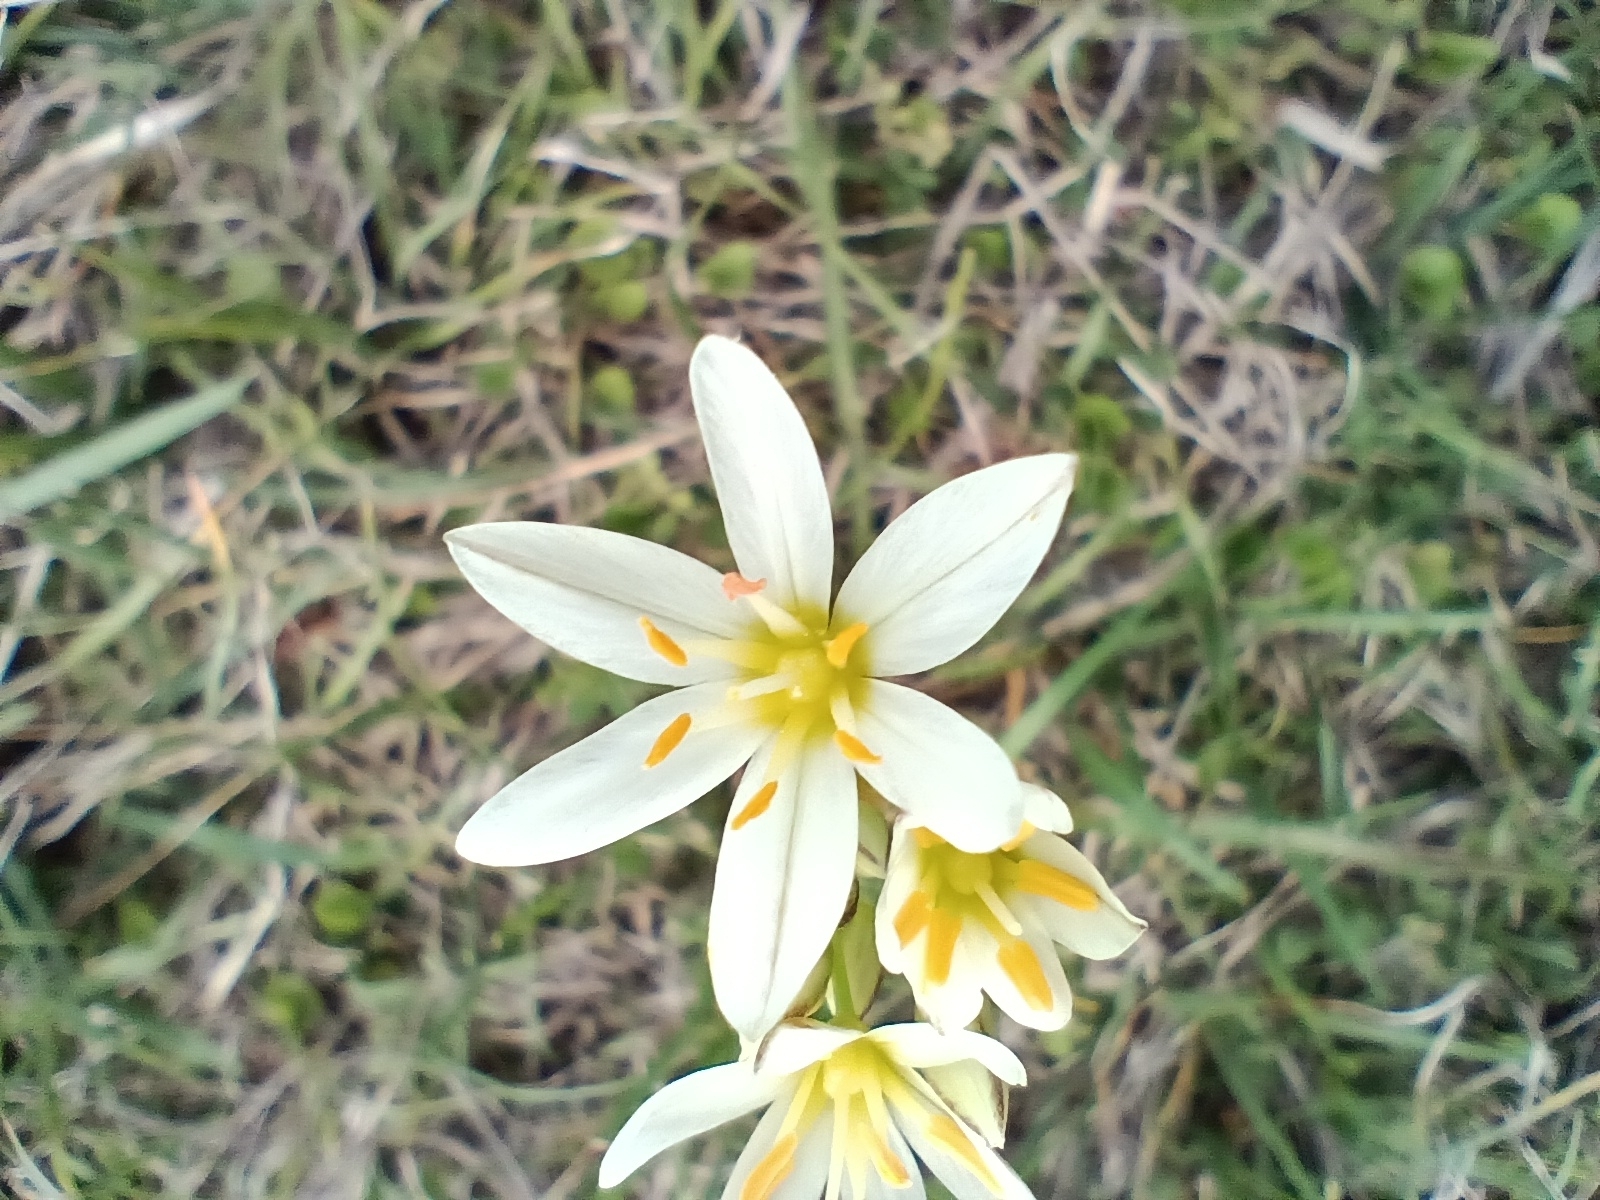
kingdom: Plantae
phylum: Tracheophyta
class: Liliopsida
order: Asparagales
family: Amaryllidaceae
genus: Nothoscordum
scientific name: Nothoscordum bivalve
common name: Crow-poison
